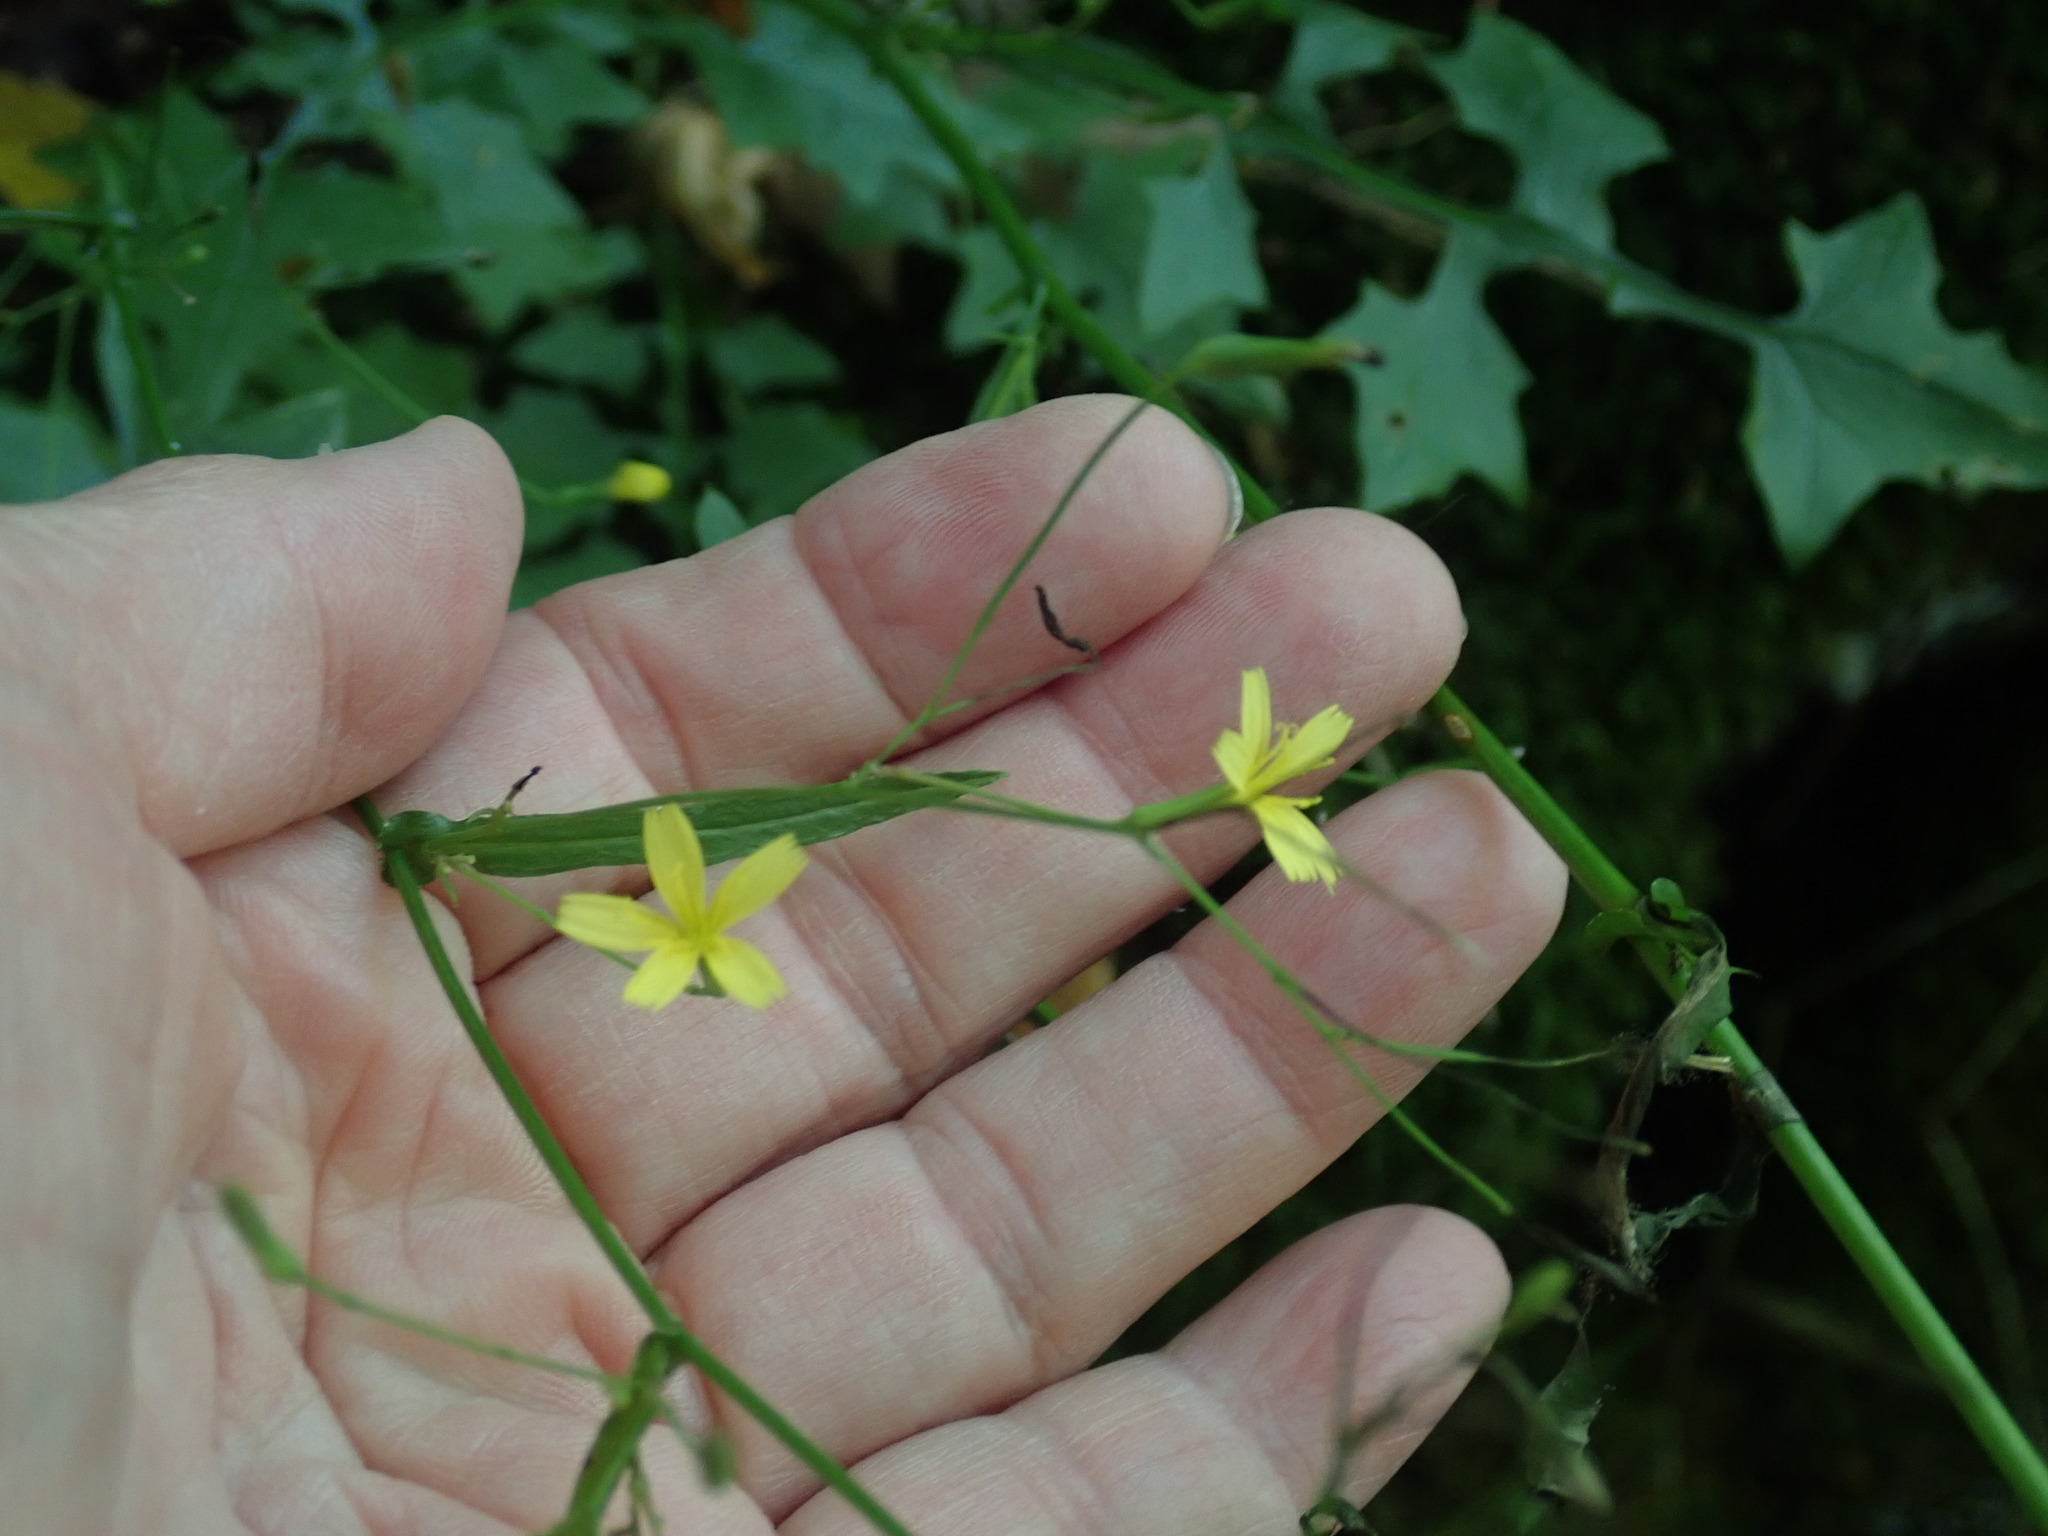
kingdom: Plantae
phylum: Tracheophyta
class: Magnoliopsida
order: Asterales
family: Asteraceae
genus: Mycelis
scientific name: Mycelis muralis
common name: Wall lettuce
